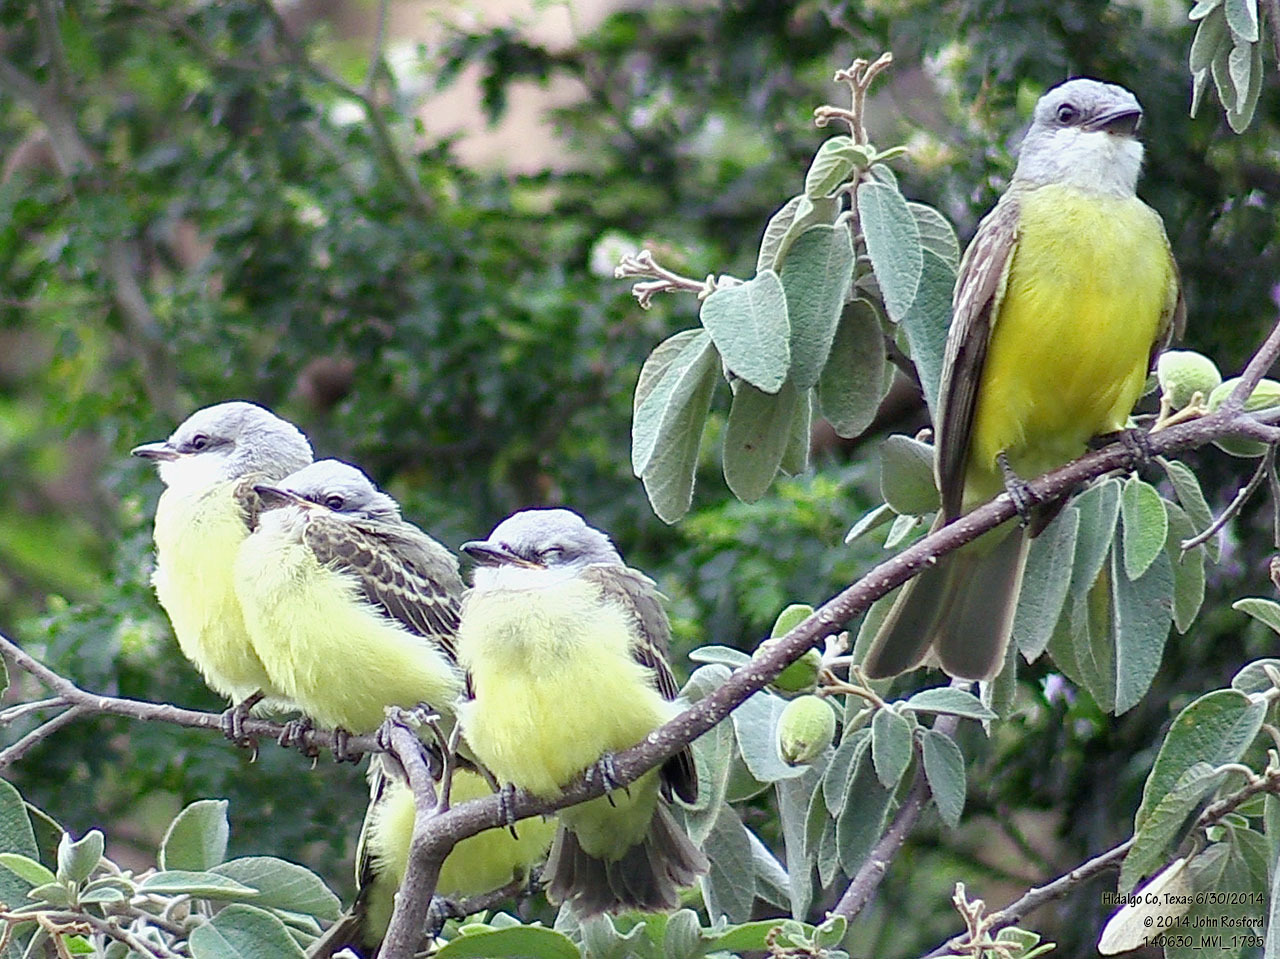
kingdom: Animalia
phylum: Chordata
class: Aves
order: Passeriformes
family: Tyrannidae
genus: Tyrannus
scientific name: Tyrannus couchii
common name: Couch's kingbird
